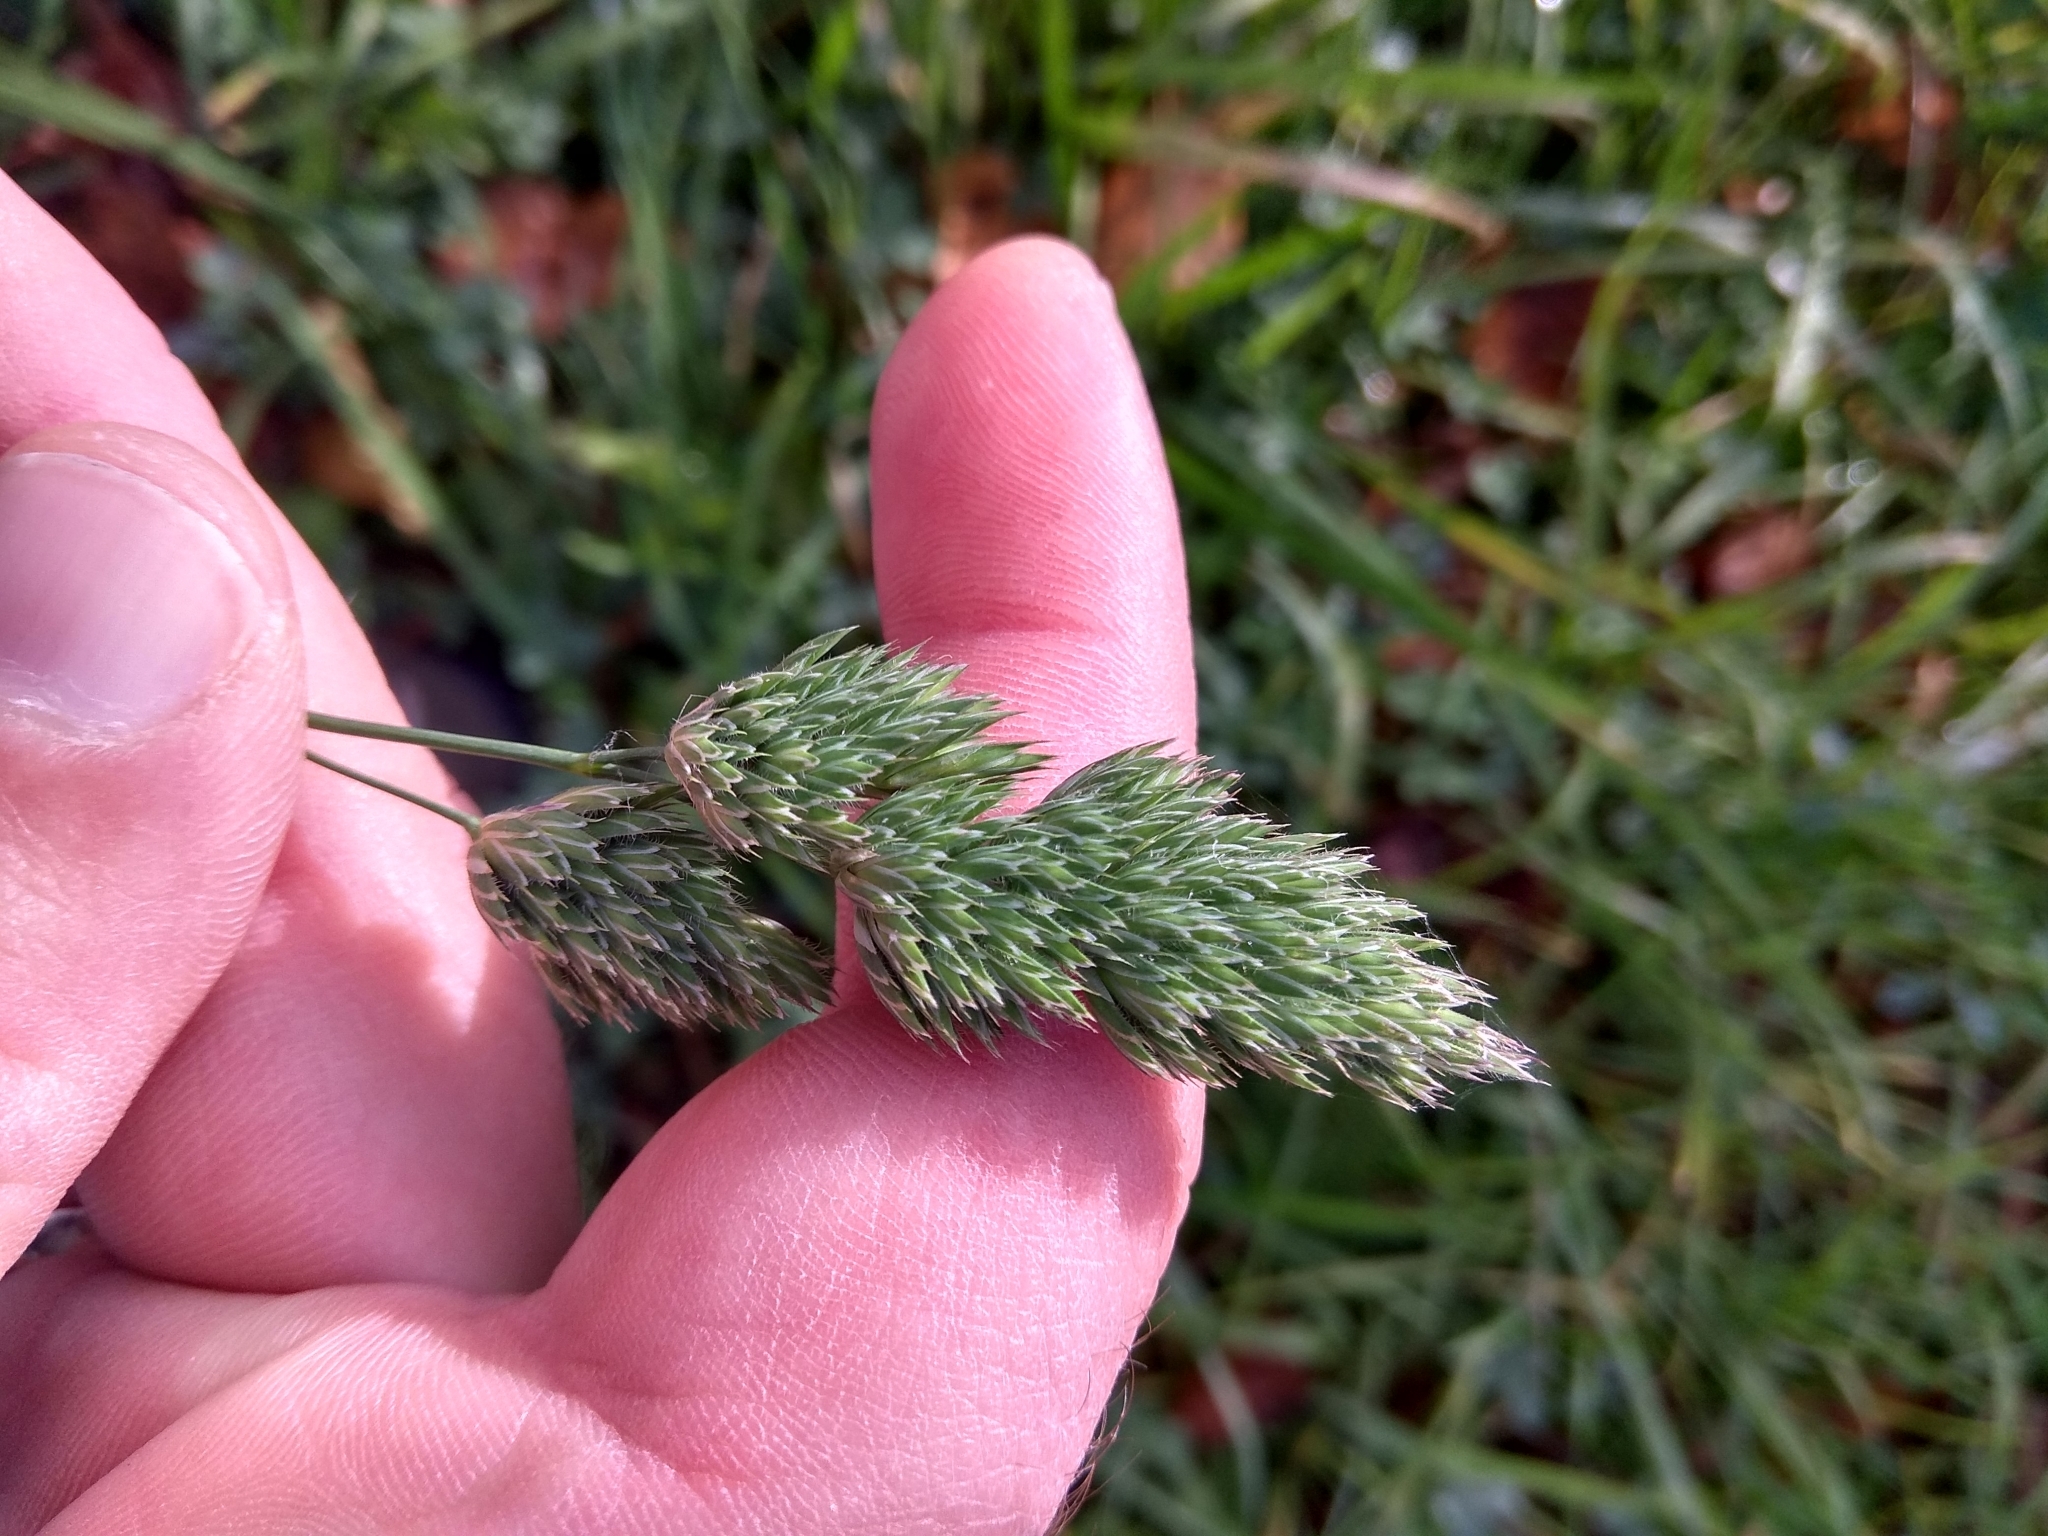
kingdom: Plantae
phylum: Tracheophyta
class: Liliopsida
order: Poales
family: Poaceae
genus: Dactylis
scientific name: Dactylis glomerata
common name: Orchardgrass
